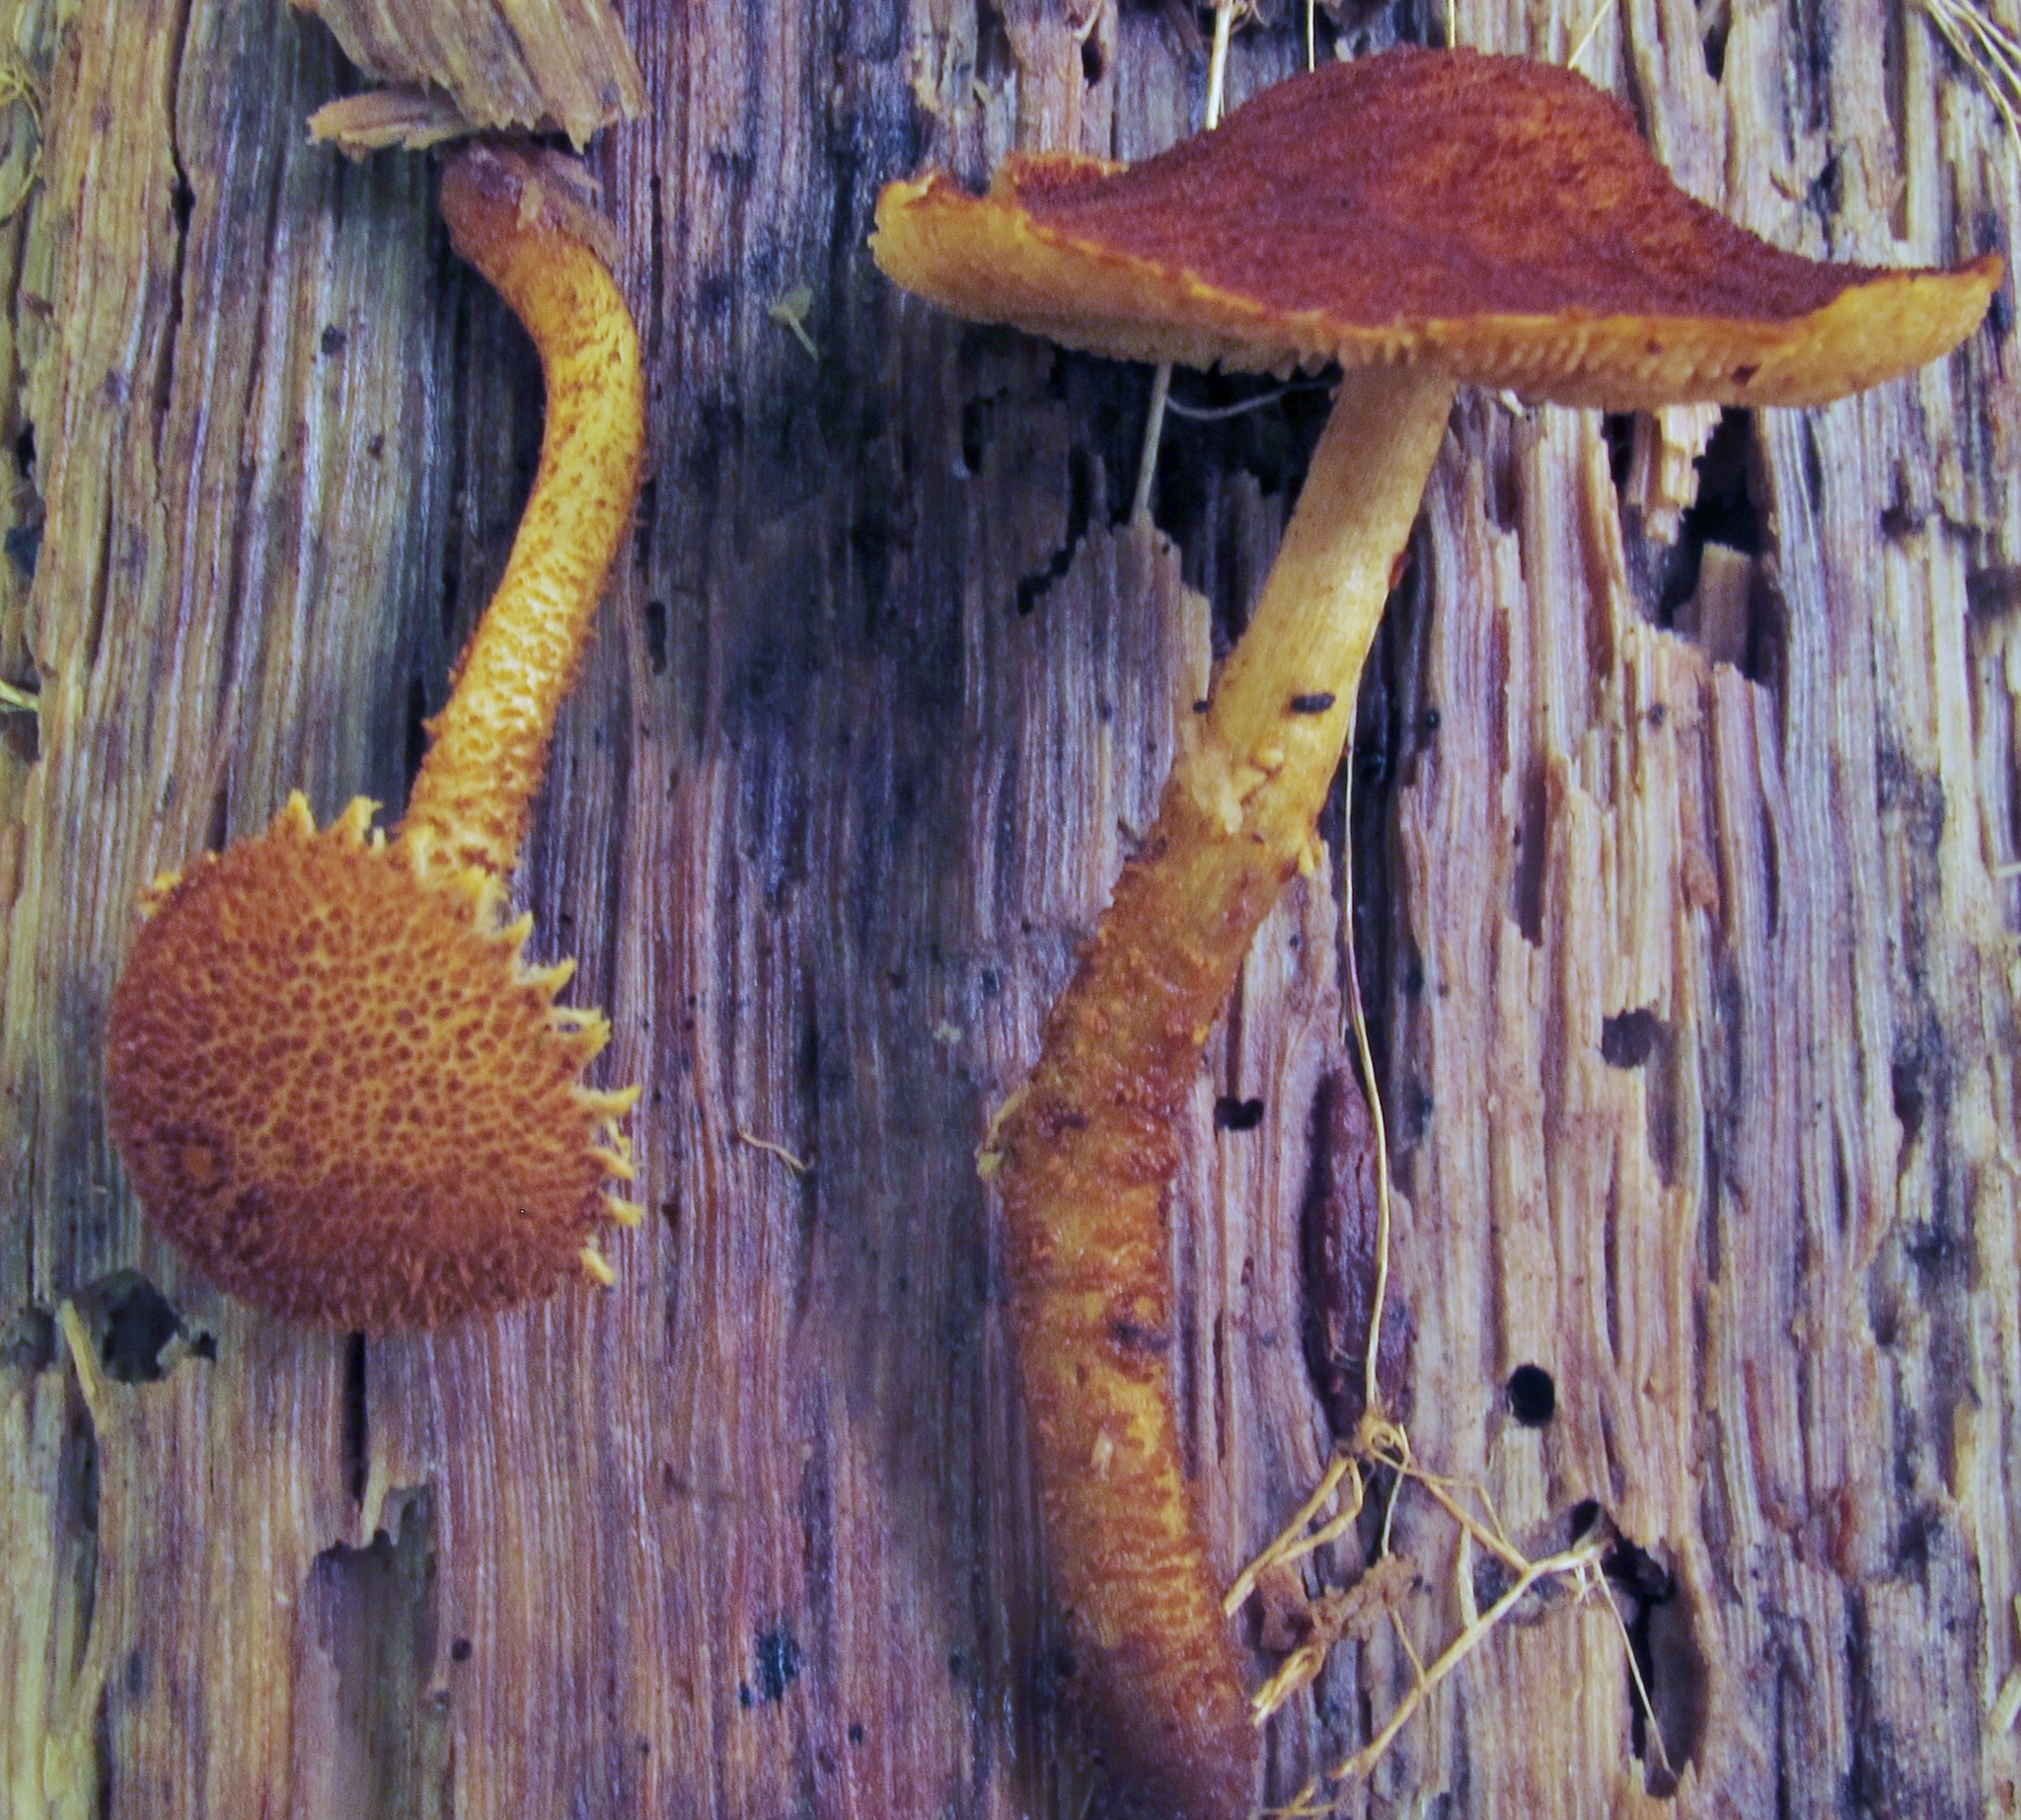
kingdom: Fungi
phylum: Basidiomycota
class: Agaricomycetes
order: Agaricales
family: Tubariaceae
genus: Flammulaster
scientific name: Flammulaster erinaceellus
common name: Powder-scale pholiota
